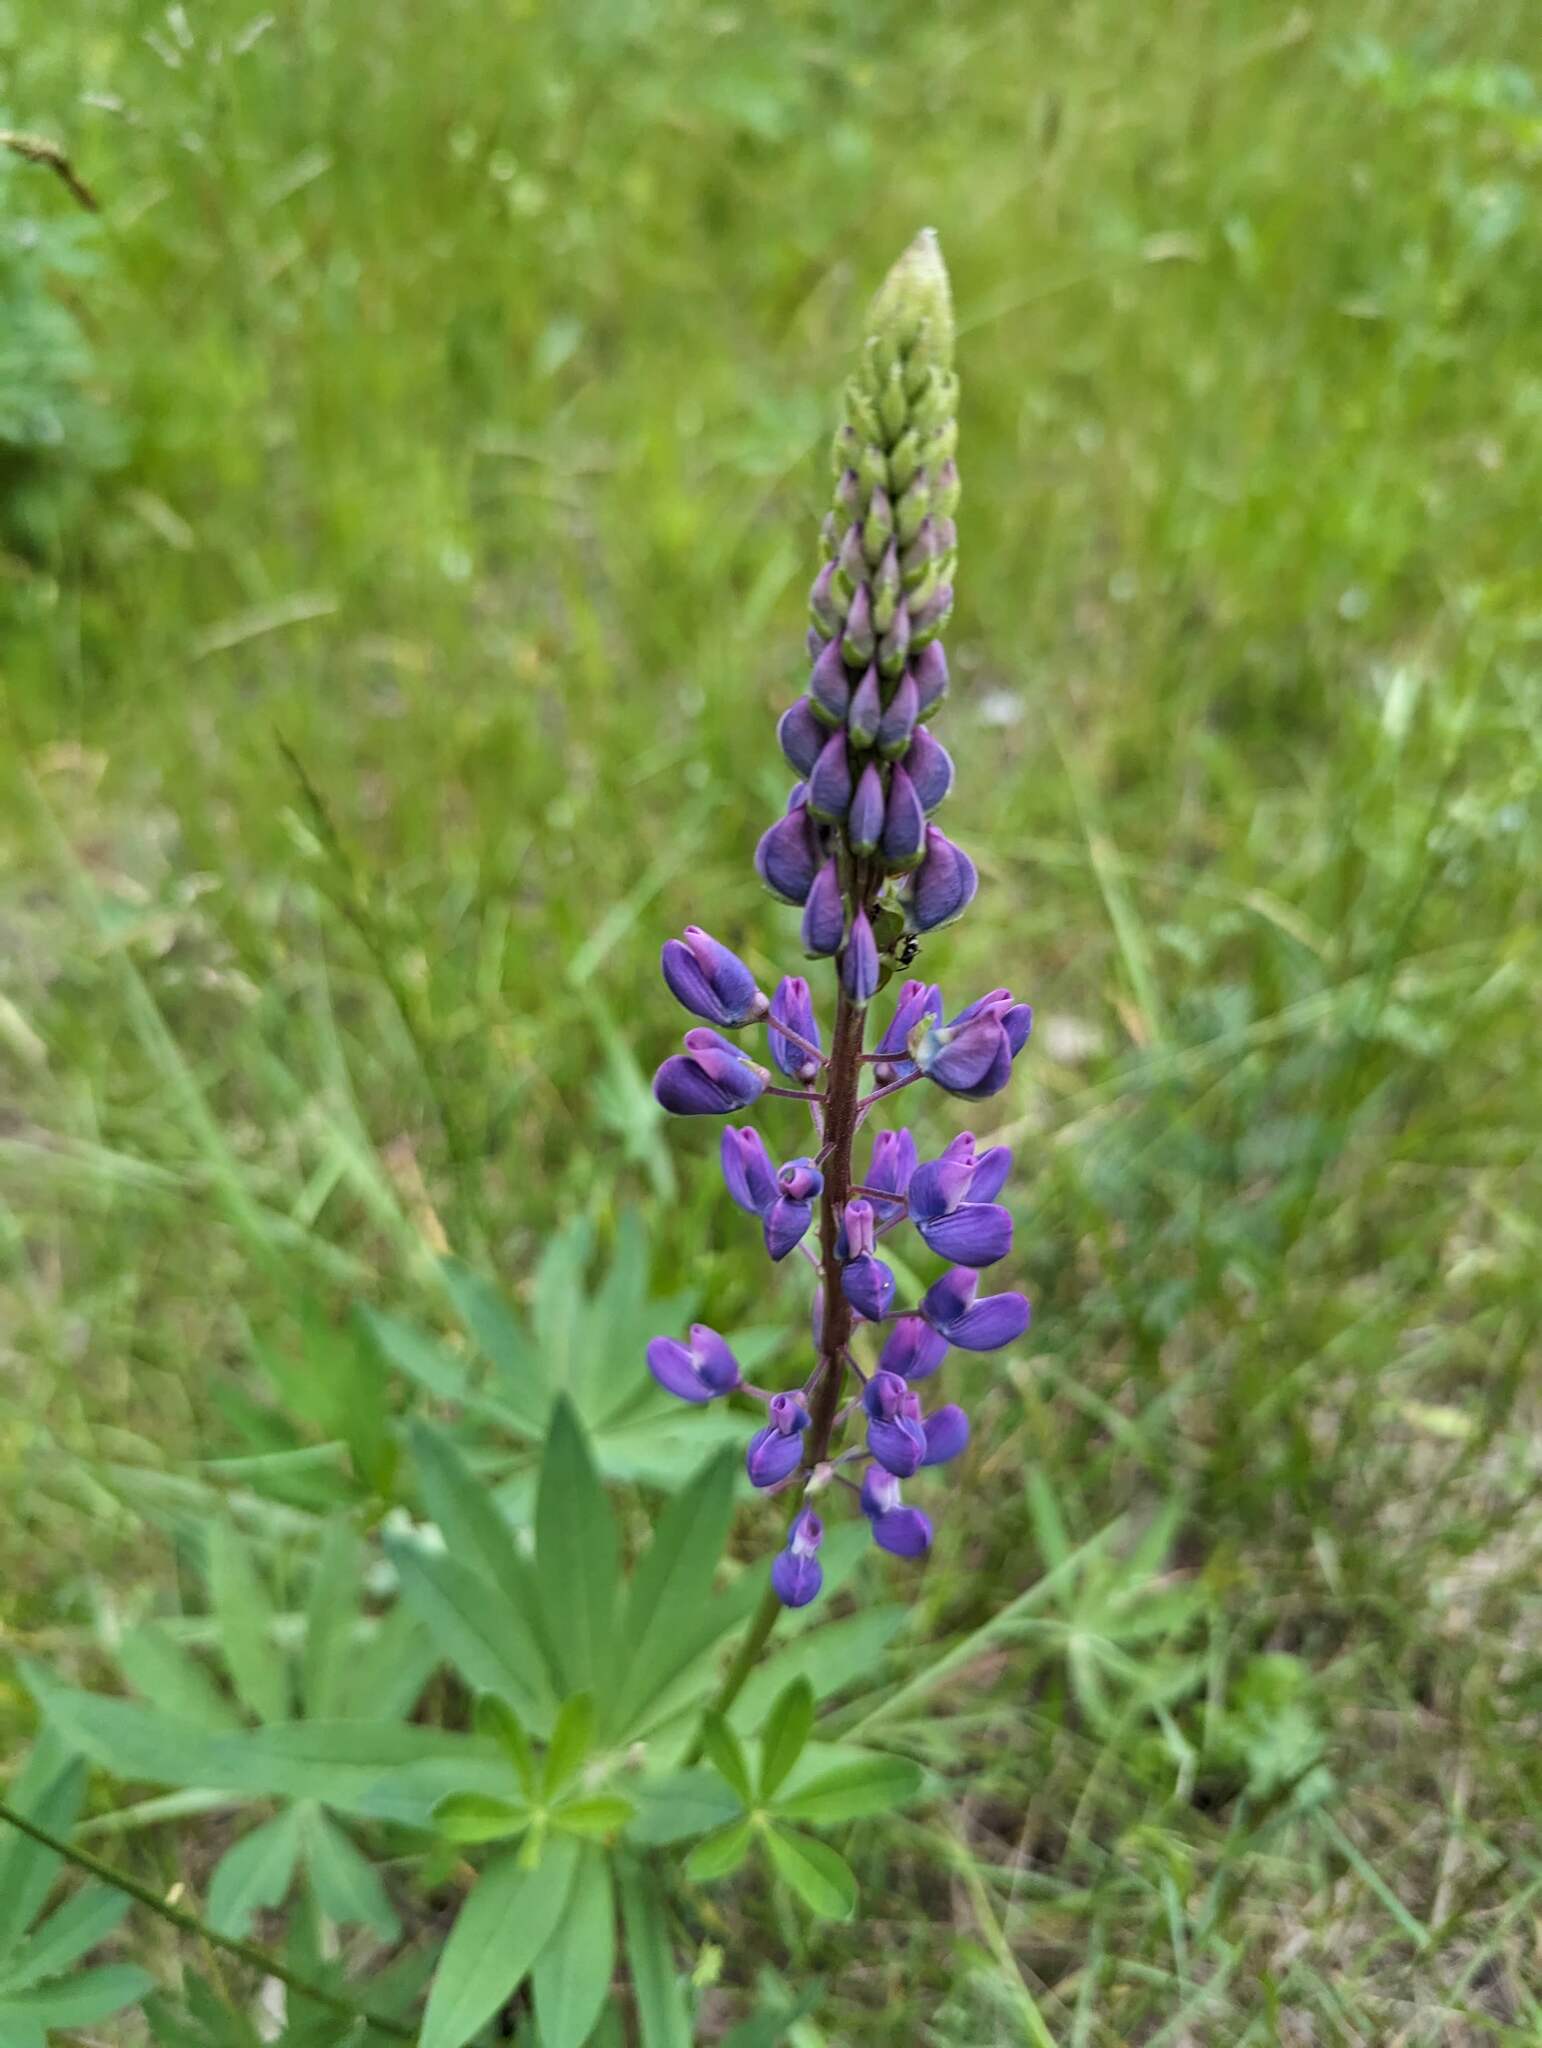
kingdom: Plantae
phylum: Tracheophyta
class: Magnoliopsida
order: Fabales
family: Fabaceae
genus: Lupinus
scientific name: Lupinus polyphyllus
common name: Garden lupin
